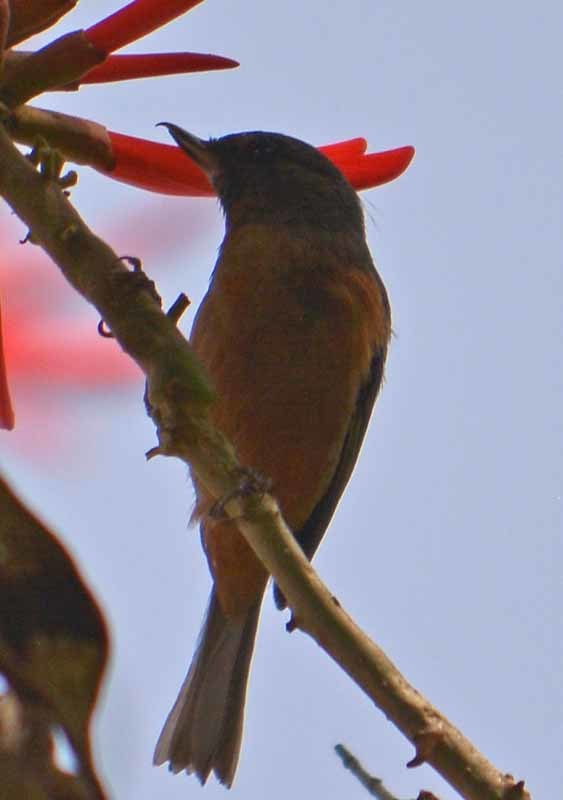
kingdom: Animalia
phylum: Chordata
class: Aves
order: Passeriformes
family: Thraupidae
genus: Diglossa
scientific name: Diglossa baritula
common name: Cinnamon-bellied flowerpiercer
